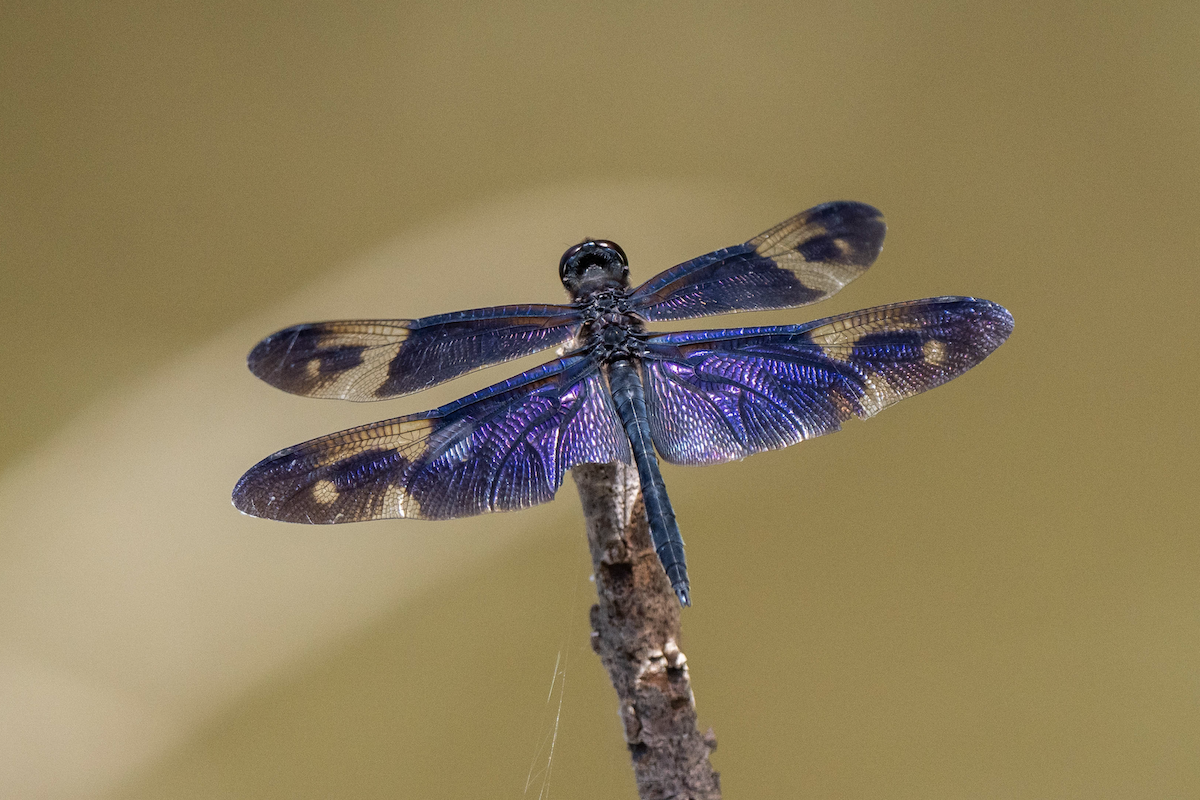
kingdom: Animalia
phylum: Arthropoda
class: Insecta
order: Odonata
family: Libellulidae
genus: Rhyothemis
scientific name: Rhyothemis regia
